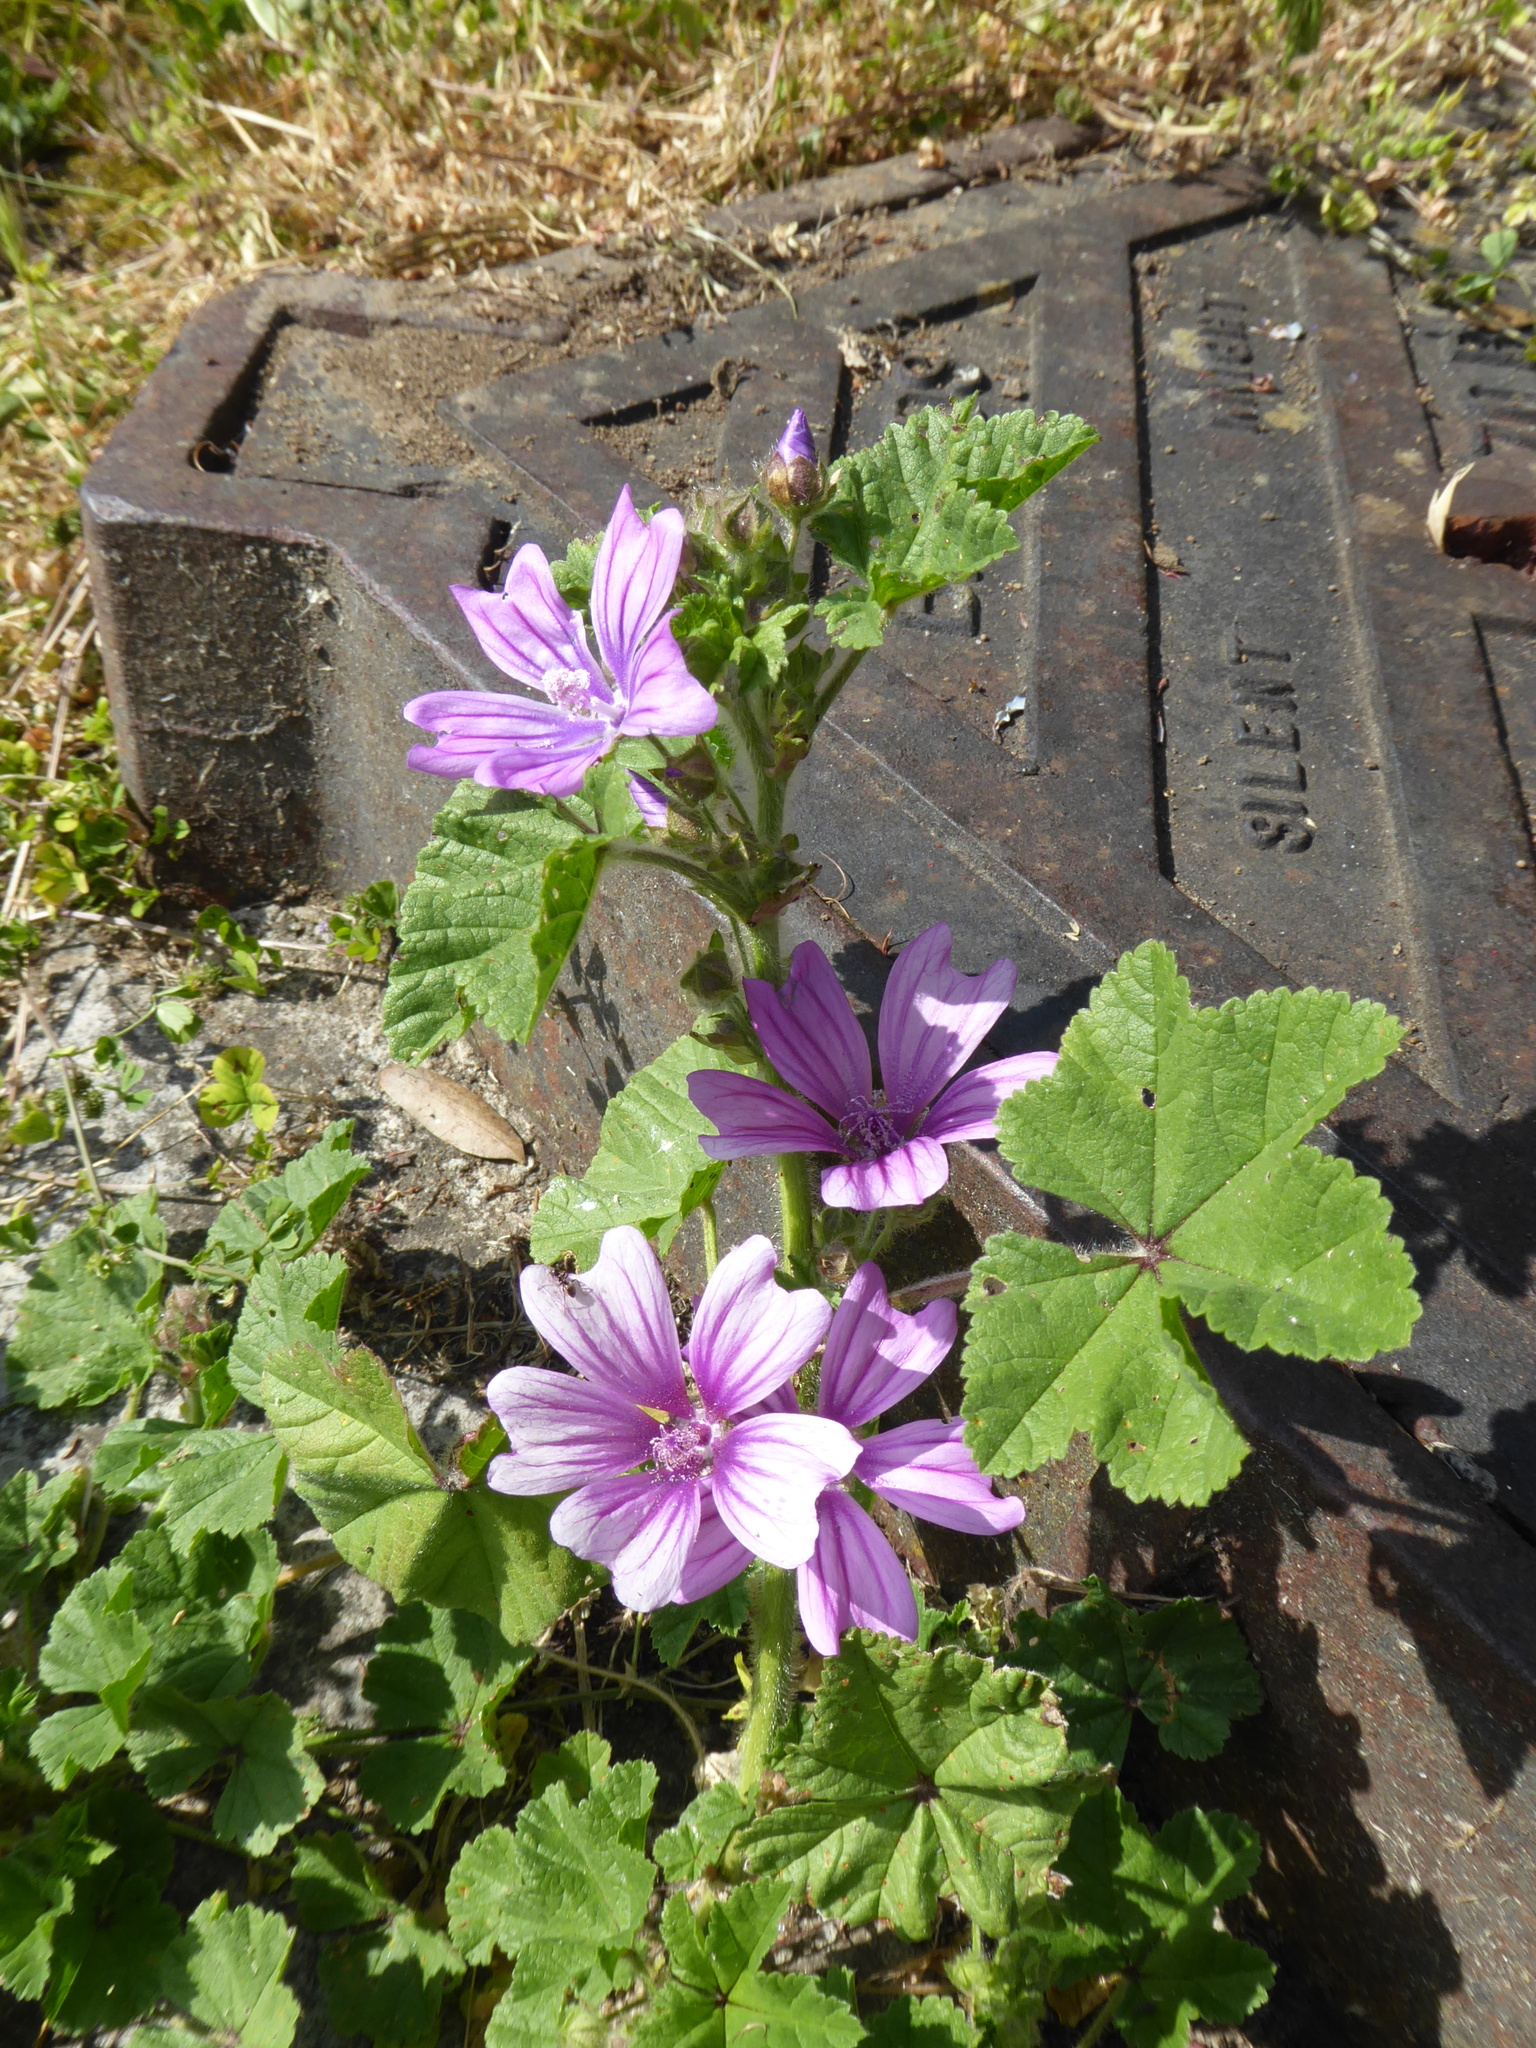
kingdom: Plantae
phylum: Tracheophyta
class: Magnoliopsida
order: Malvales
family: Malvaceae
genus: Malva
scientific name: Malva sylvestris
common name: Common mallow
